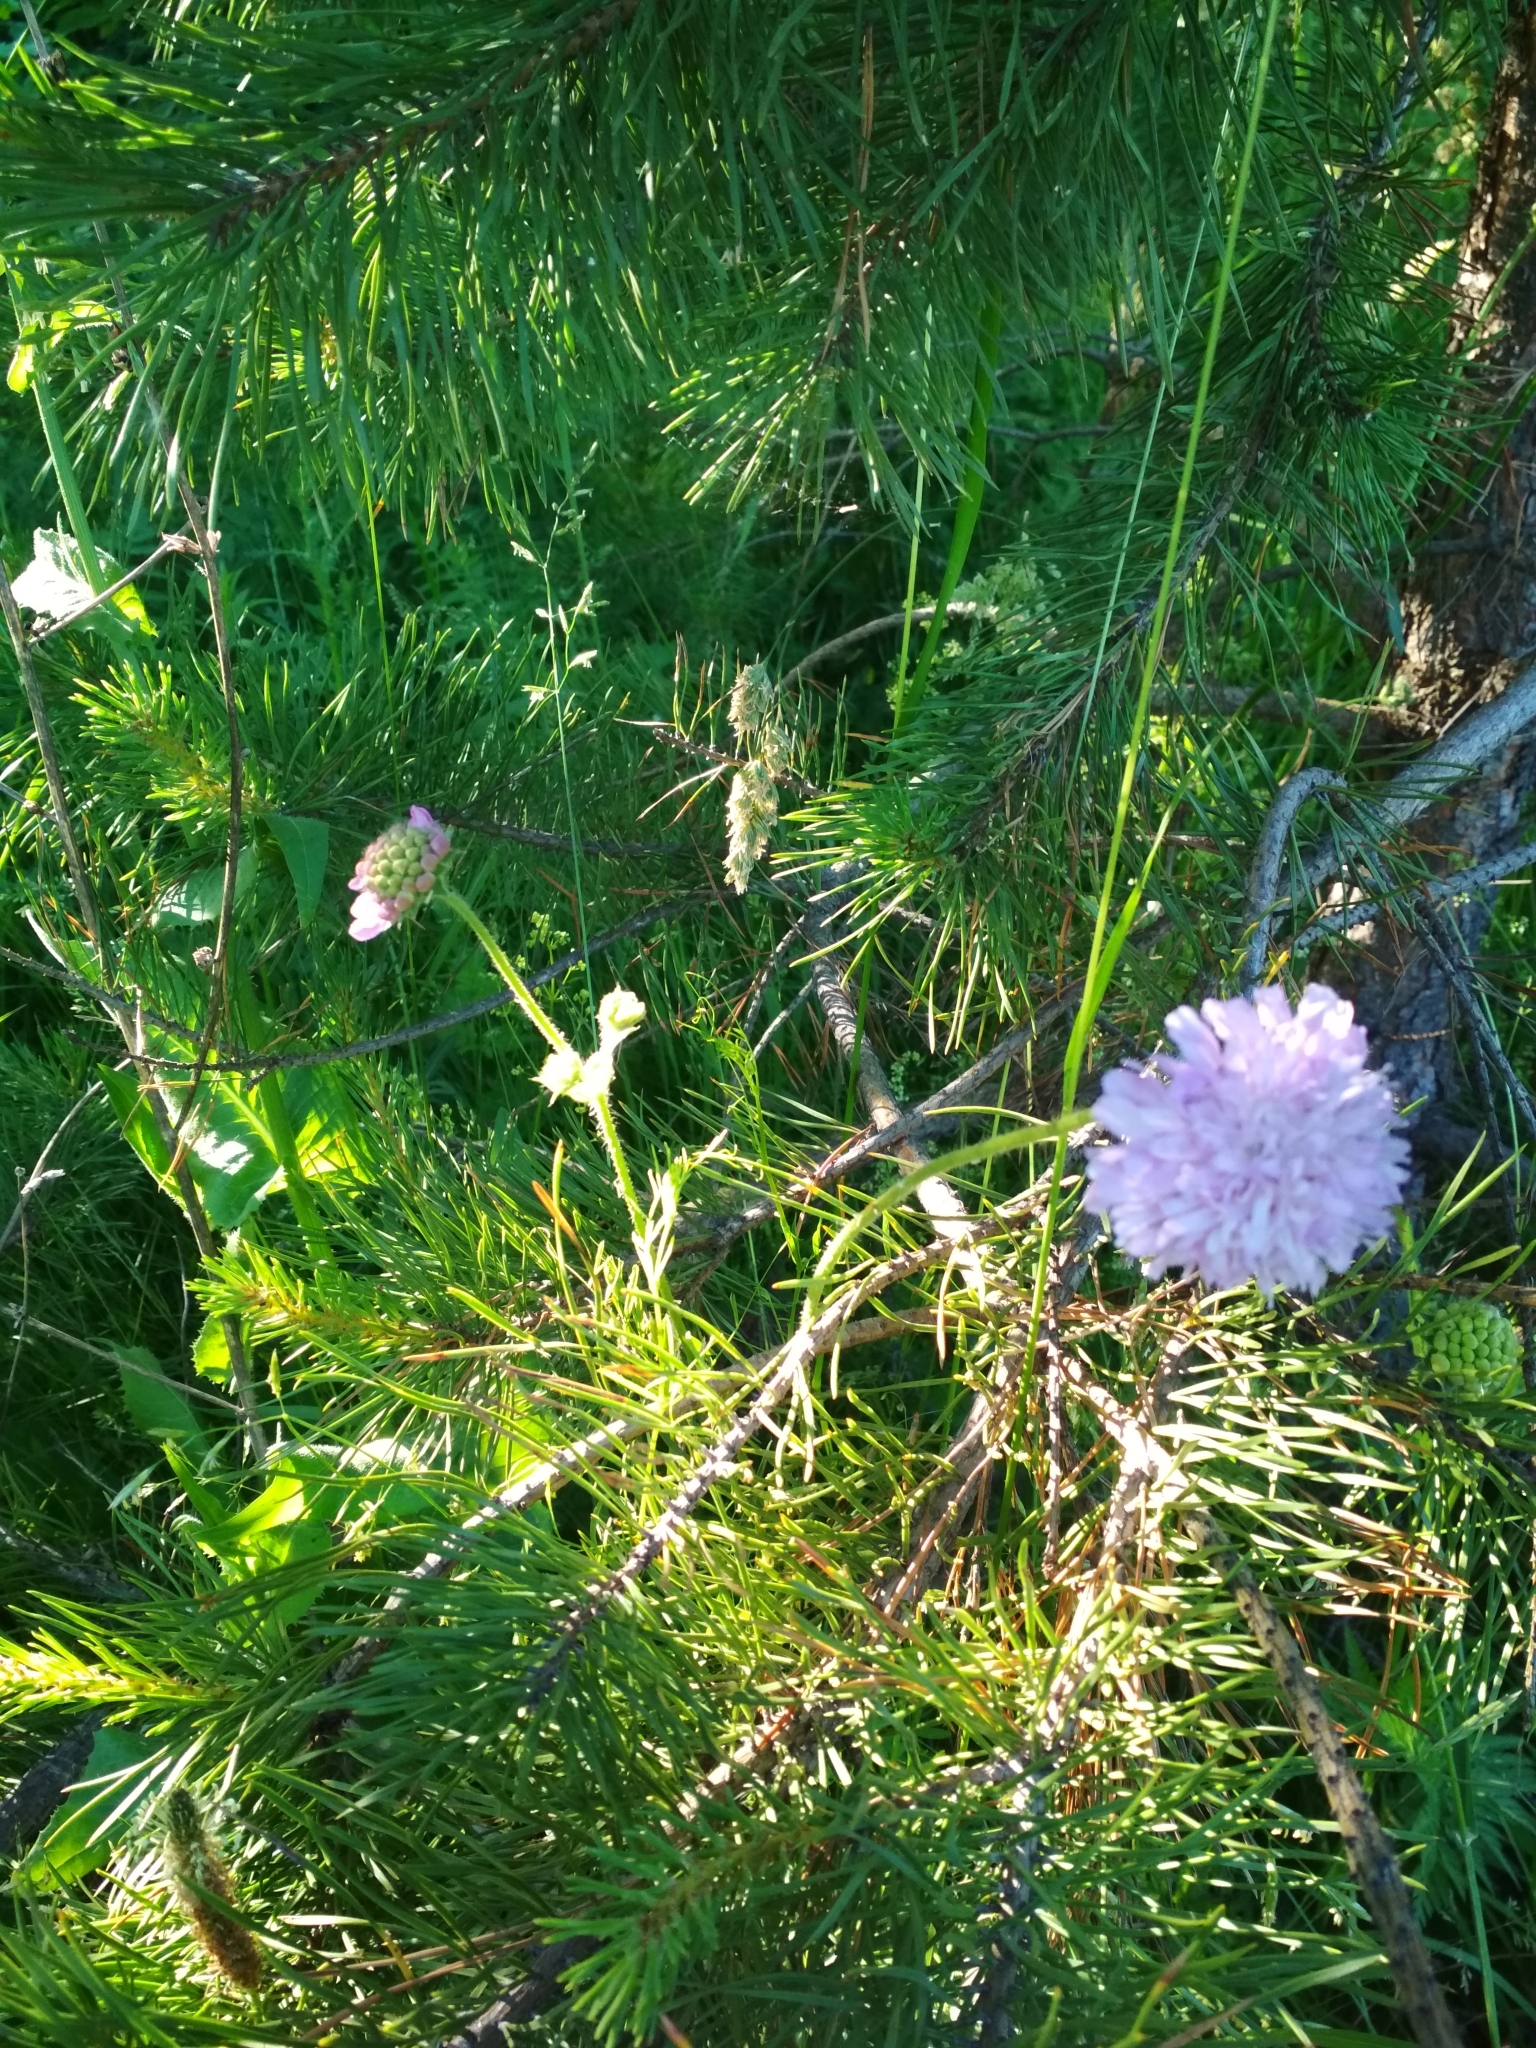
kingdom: Plantae
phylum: Tracheophyta
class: Magnoliopsida
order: Dipsacales
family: Caprifoliaceae
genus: Knautia
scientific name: Knautia arvensis
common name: Field scabiosa
